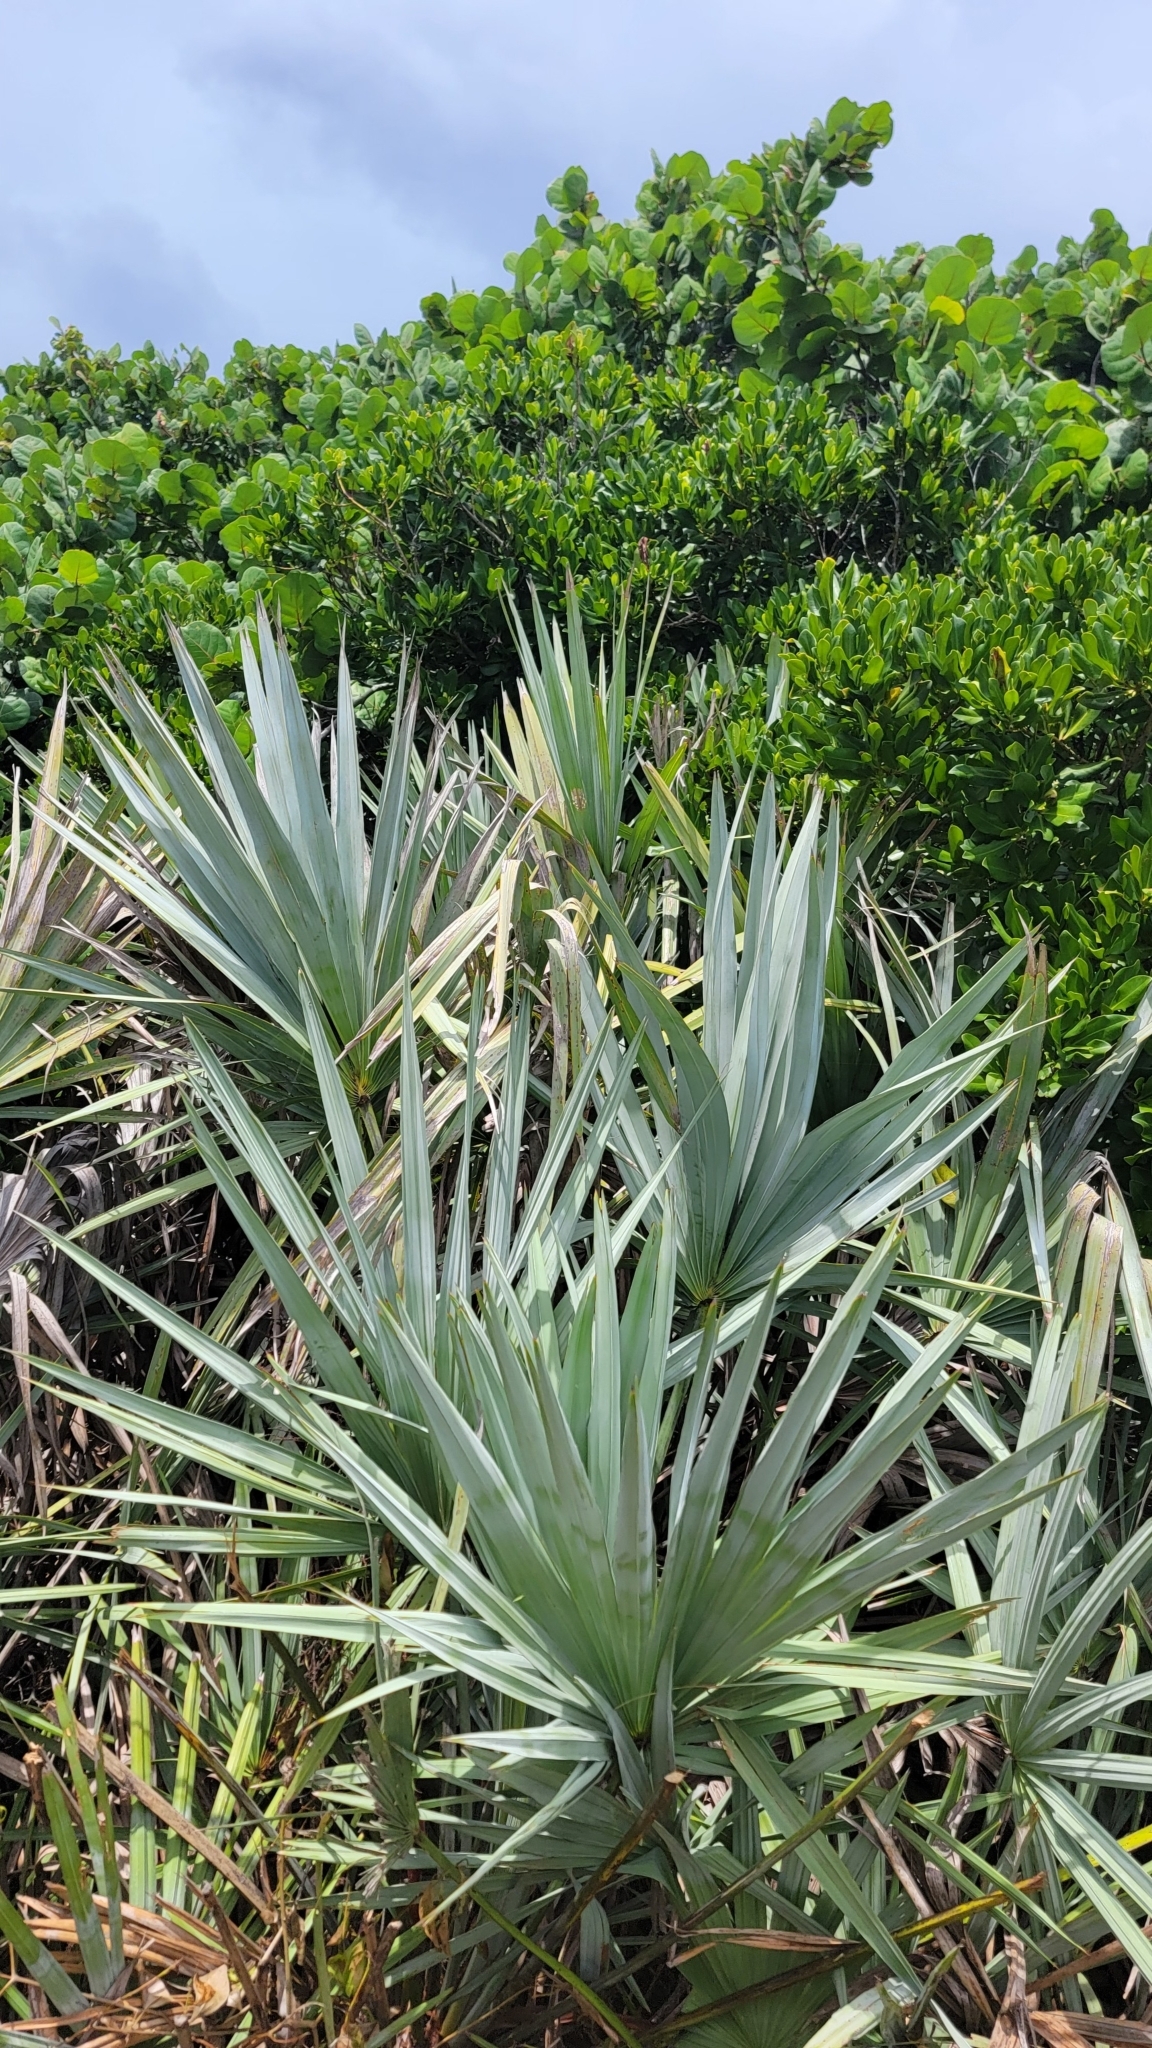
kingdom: Plantae
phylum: Tracheophyta
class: Liliopsida
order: Arecales
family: Arecaceae
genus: Serenoa
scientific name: Serenoa repens
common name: Saw-palmetto
